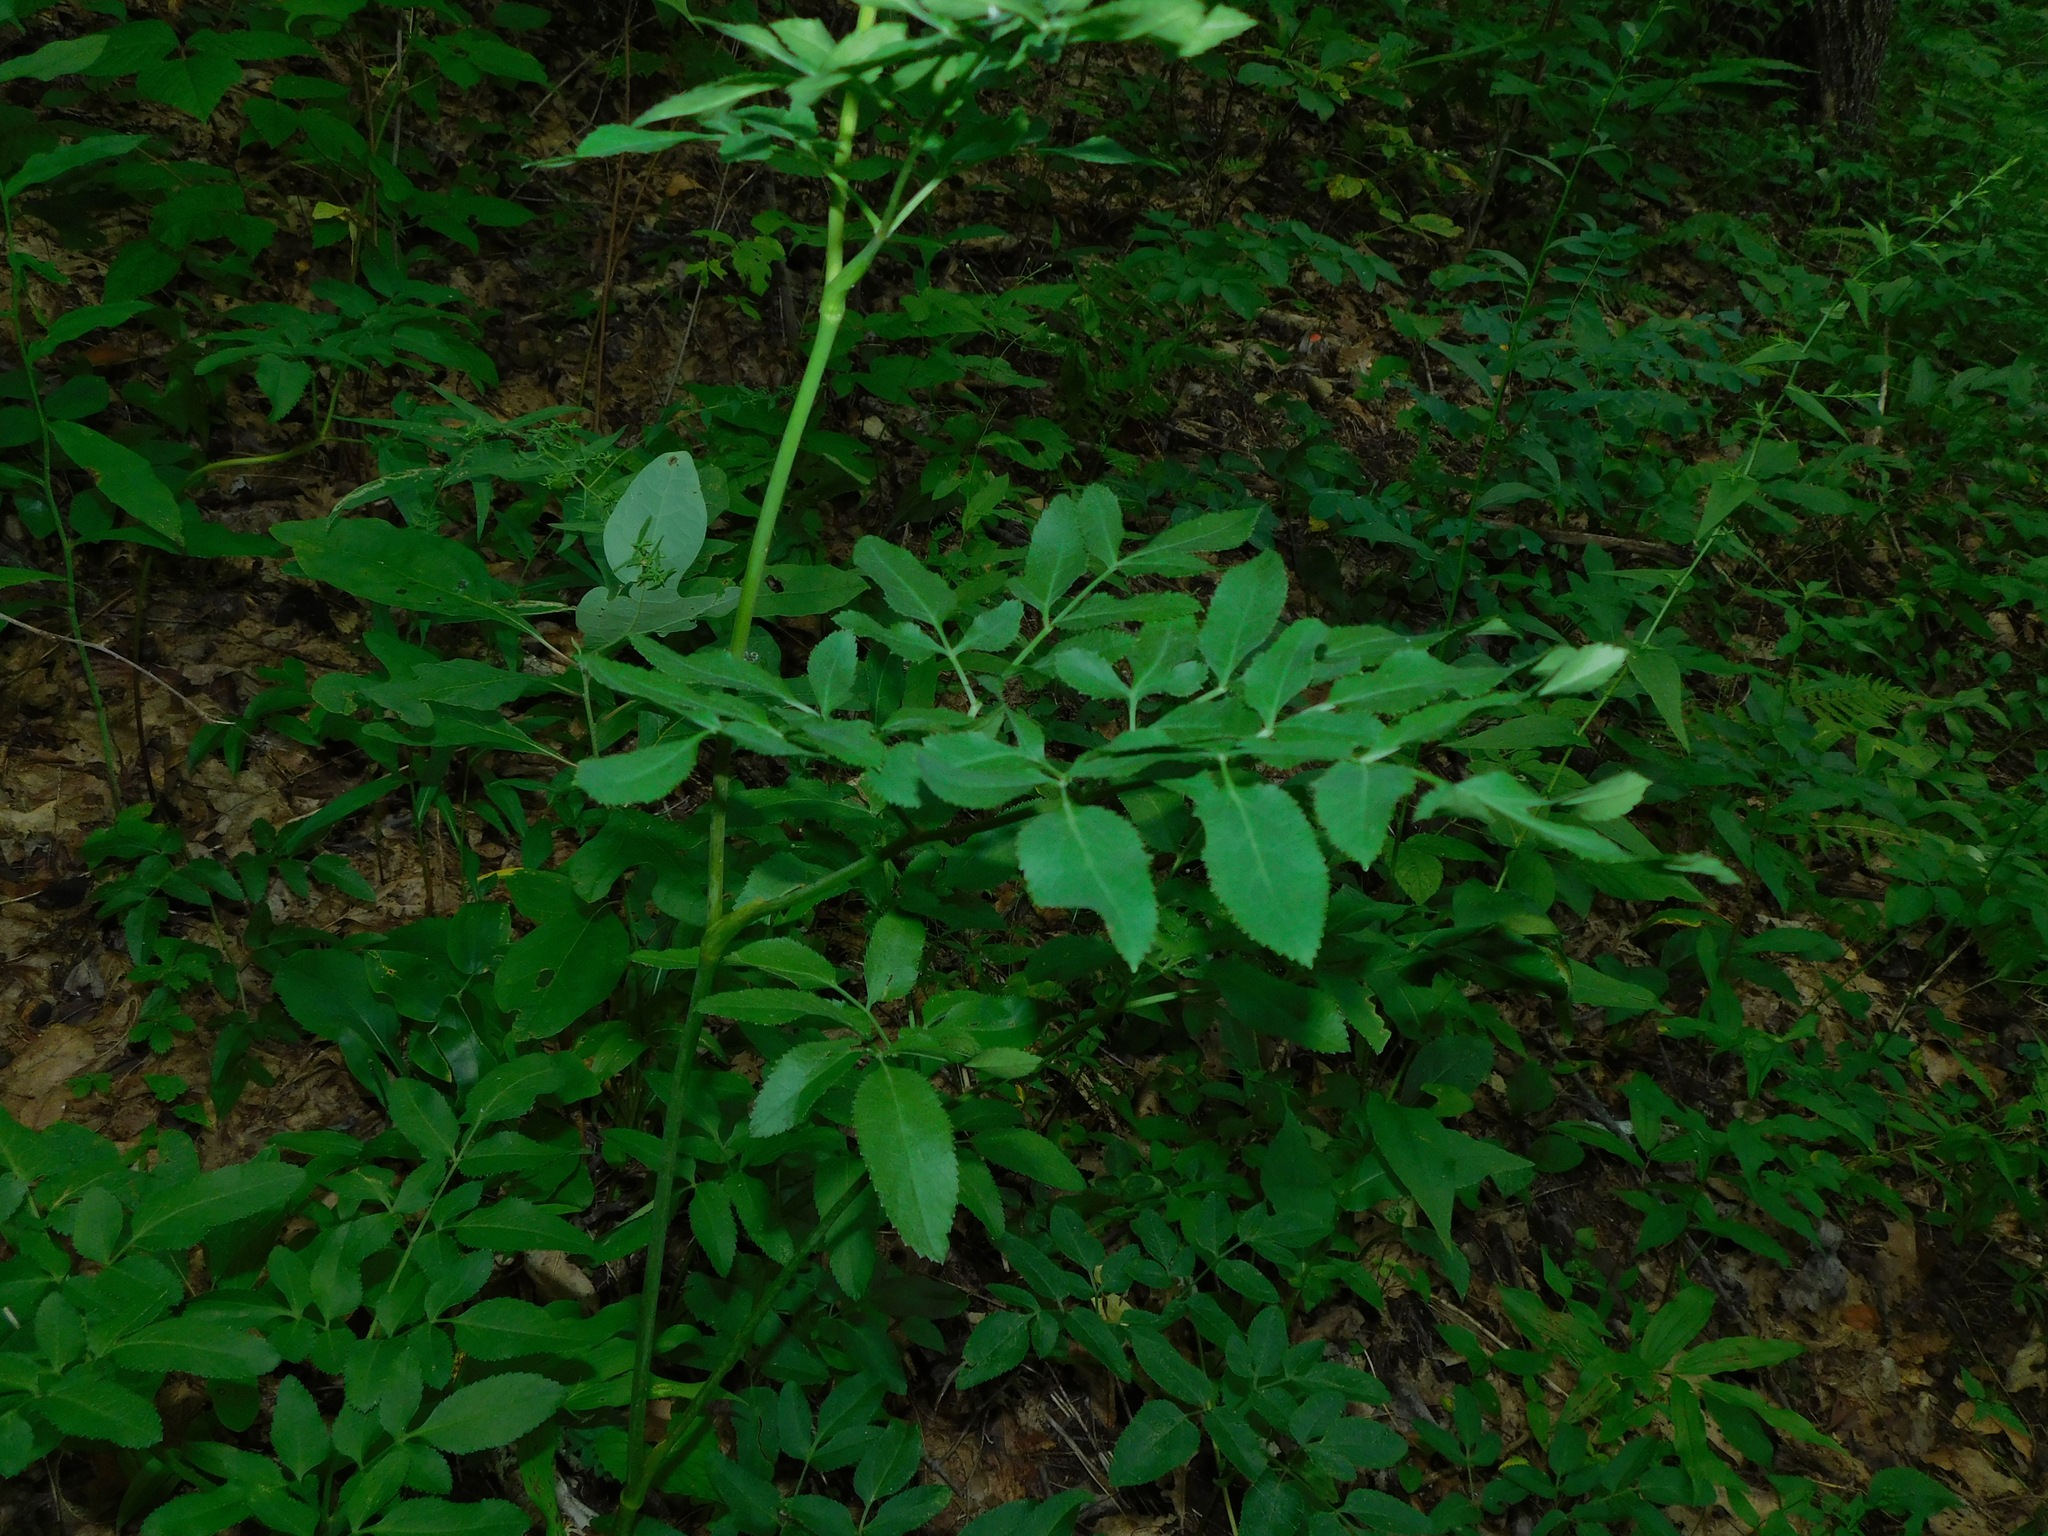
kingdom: Plantae
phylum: Tracheophyta
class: Magnoliopsida
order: Apiales
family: Apiaceae
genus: Angelica
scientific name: Angelica venenosa
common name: Hairy angelica
